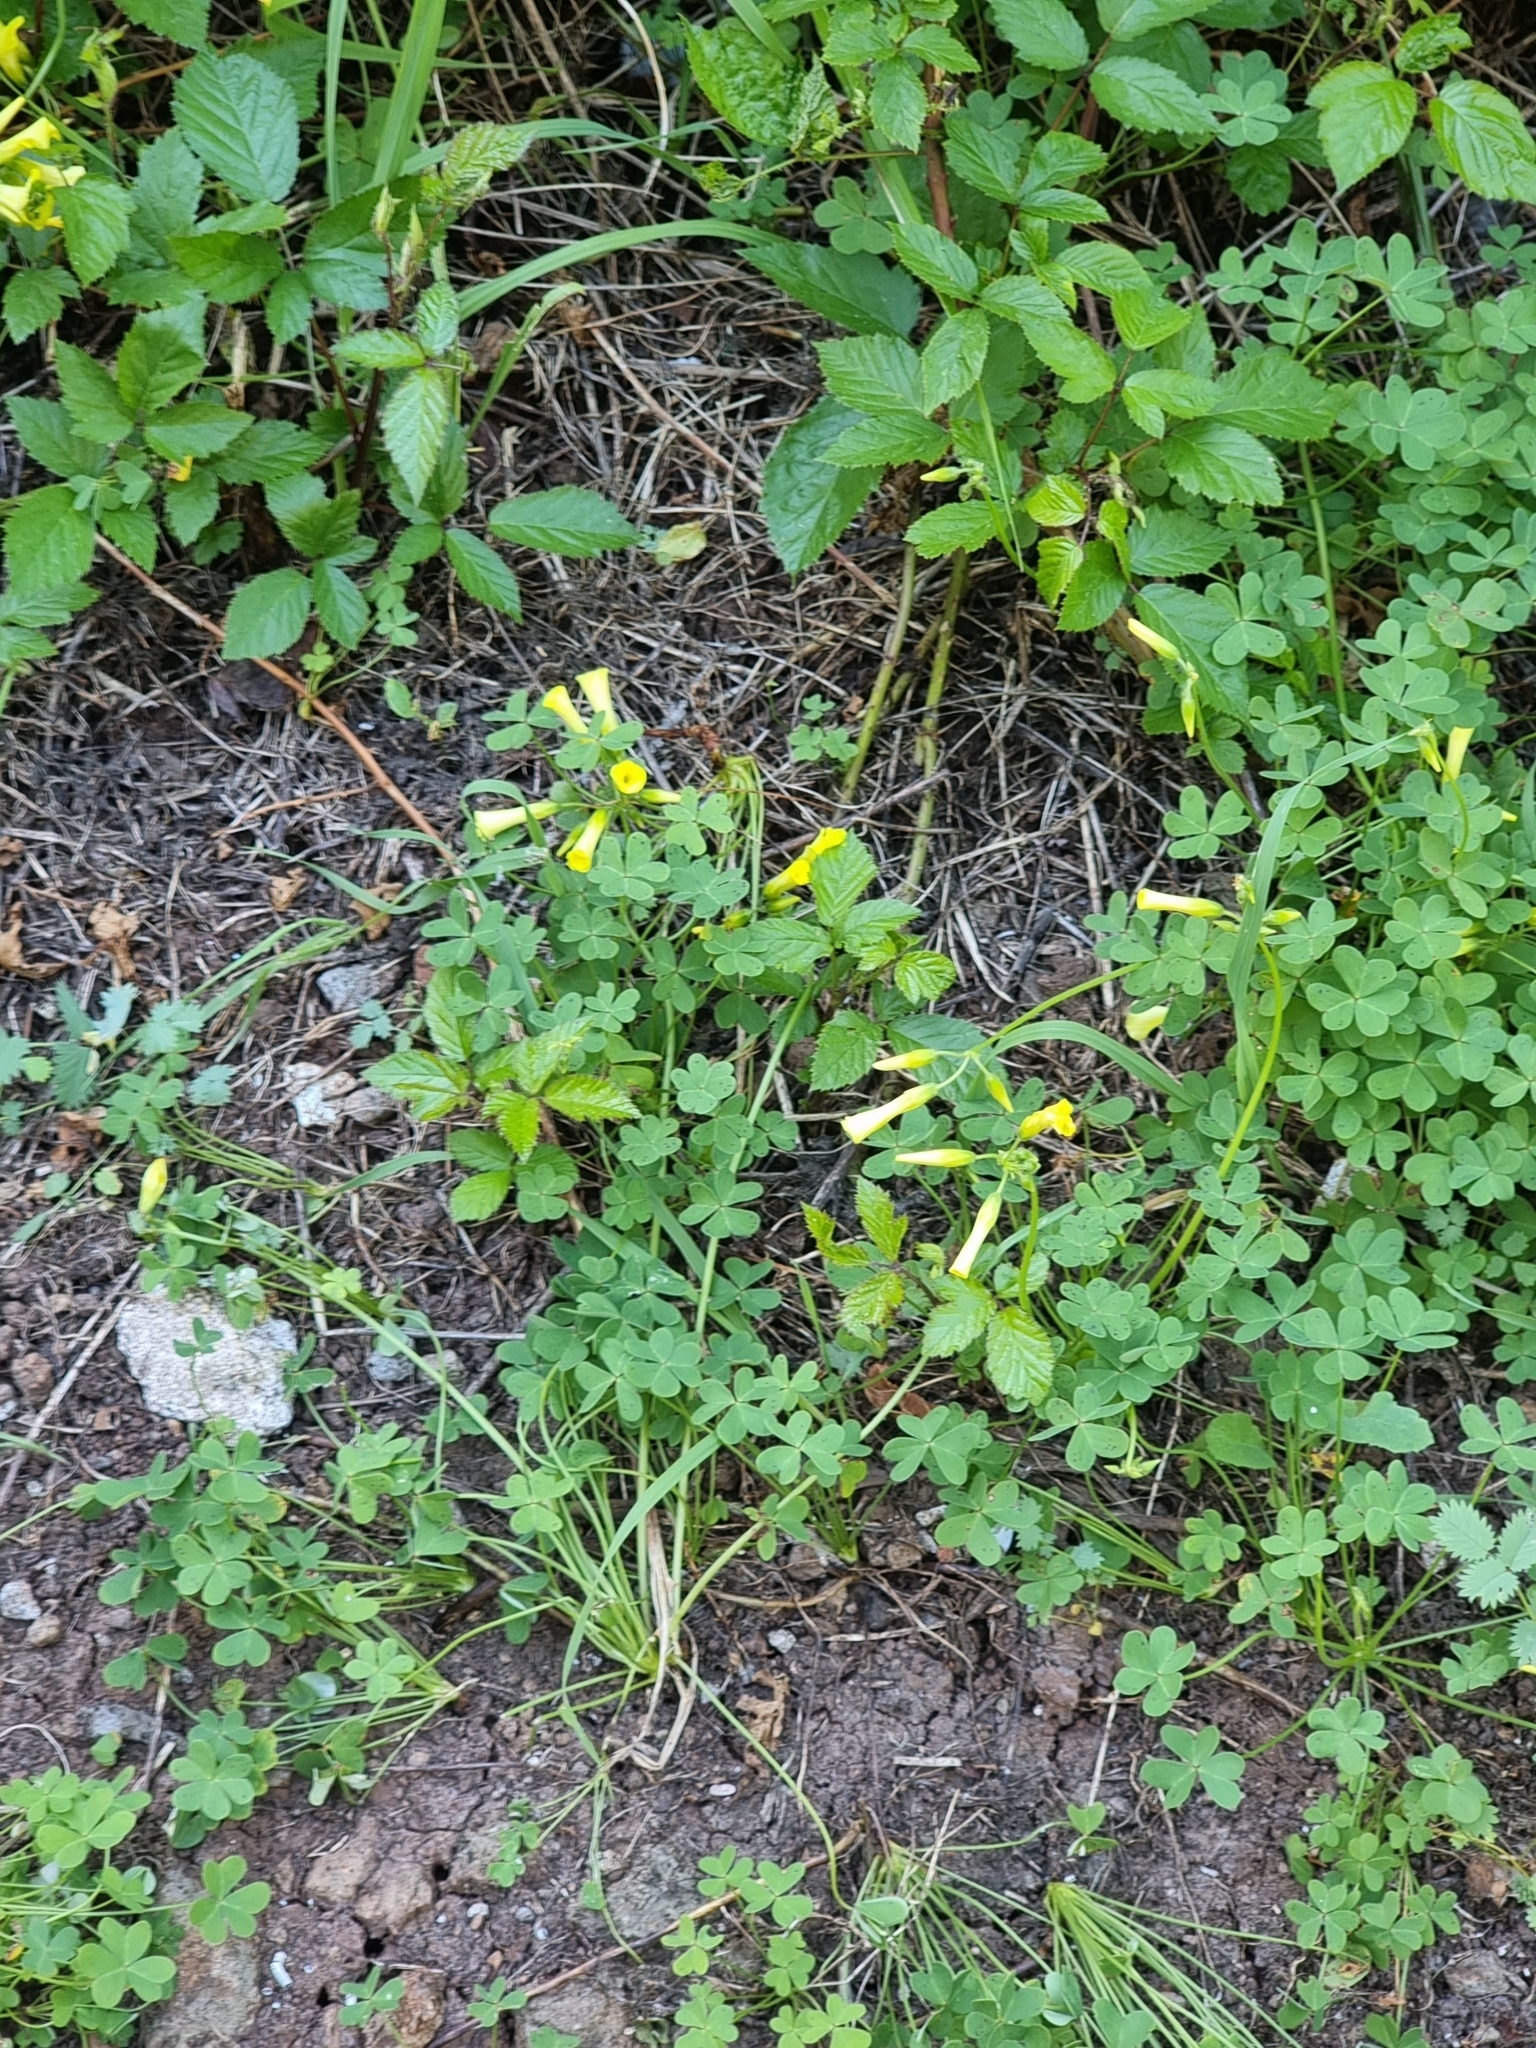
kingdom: Plantae
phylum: Tracheophyta
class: Magnoliopsida
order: Oxalidales
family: Oxalidaceae
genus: Oxalis
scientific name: Oxalis pes-caprae
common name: Bermuda-buttercup
